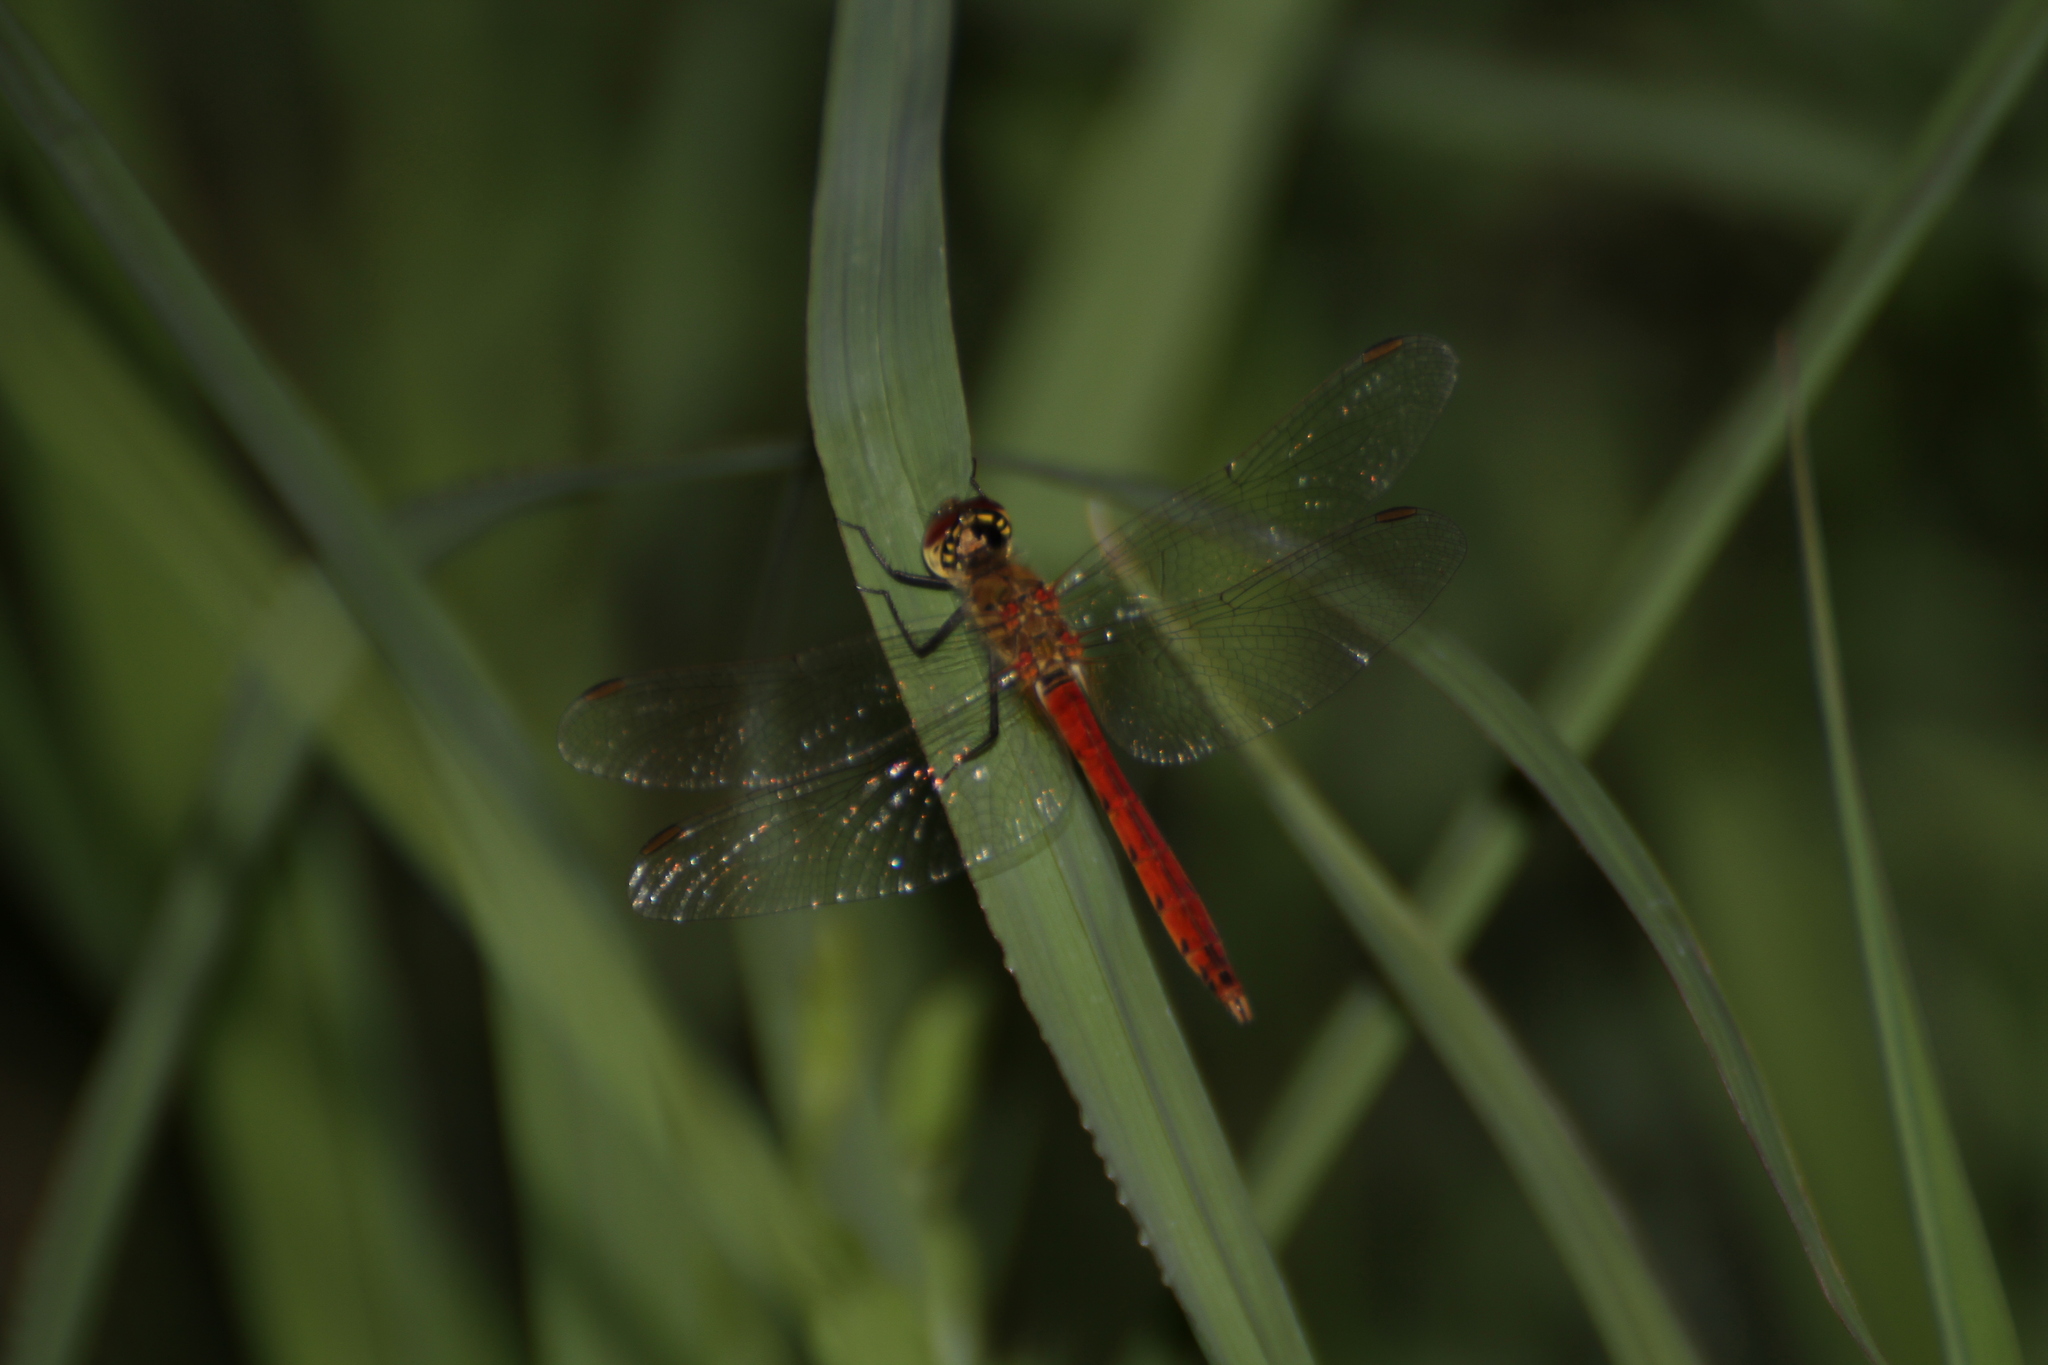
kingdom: Animalia
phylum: Arthropoda
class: Insecta
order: Odonata
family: Libellulidae
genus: Sympetrum
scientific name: Sympetrum depressiusculum
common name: Spotted darter
